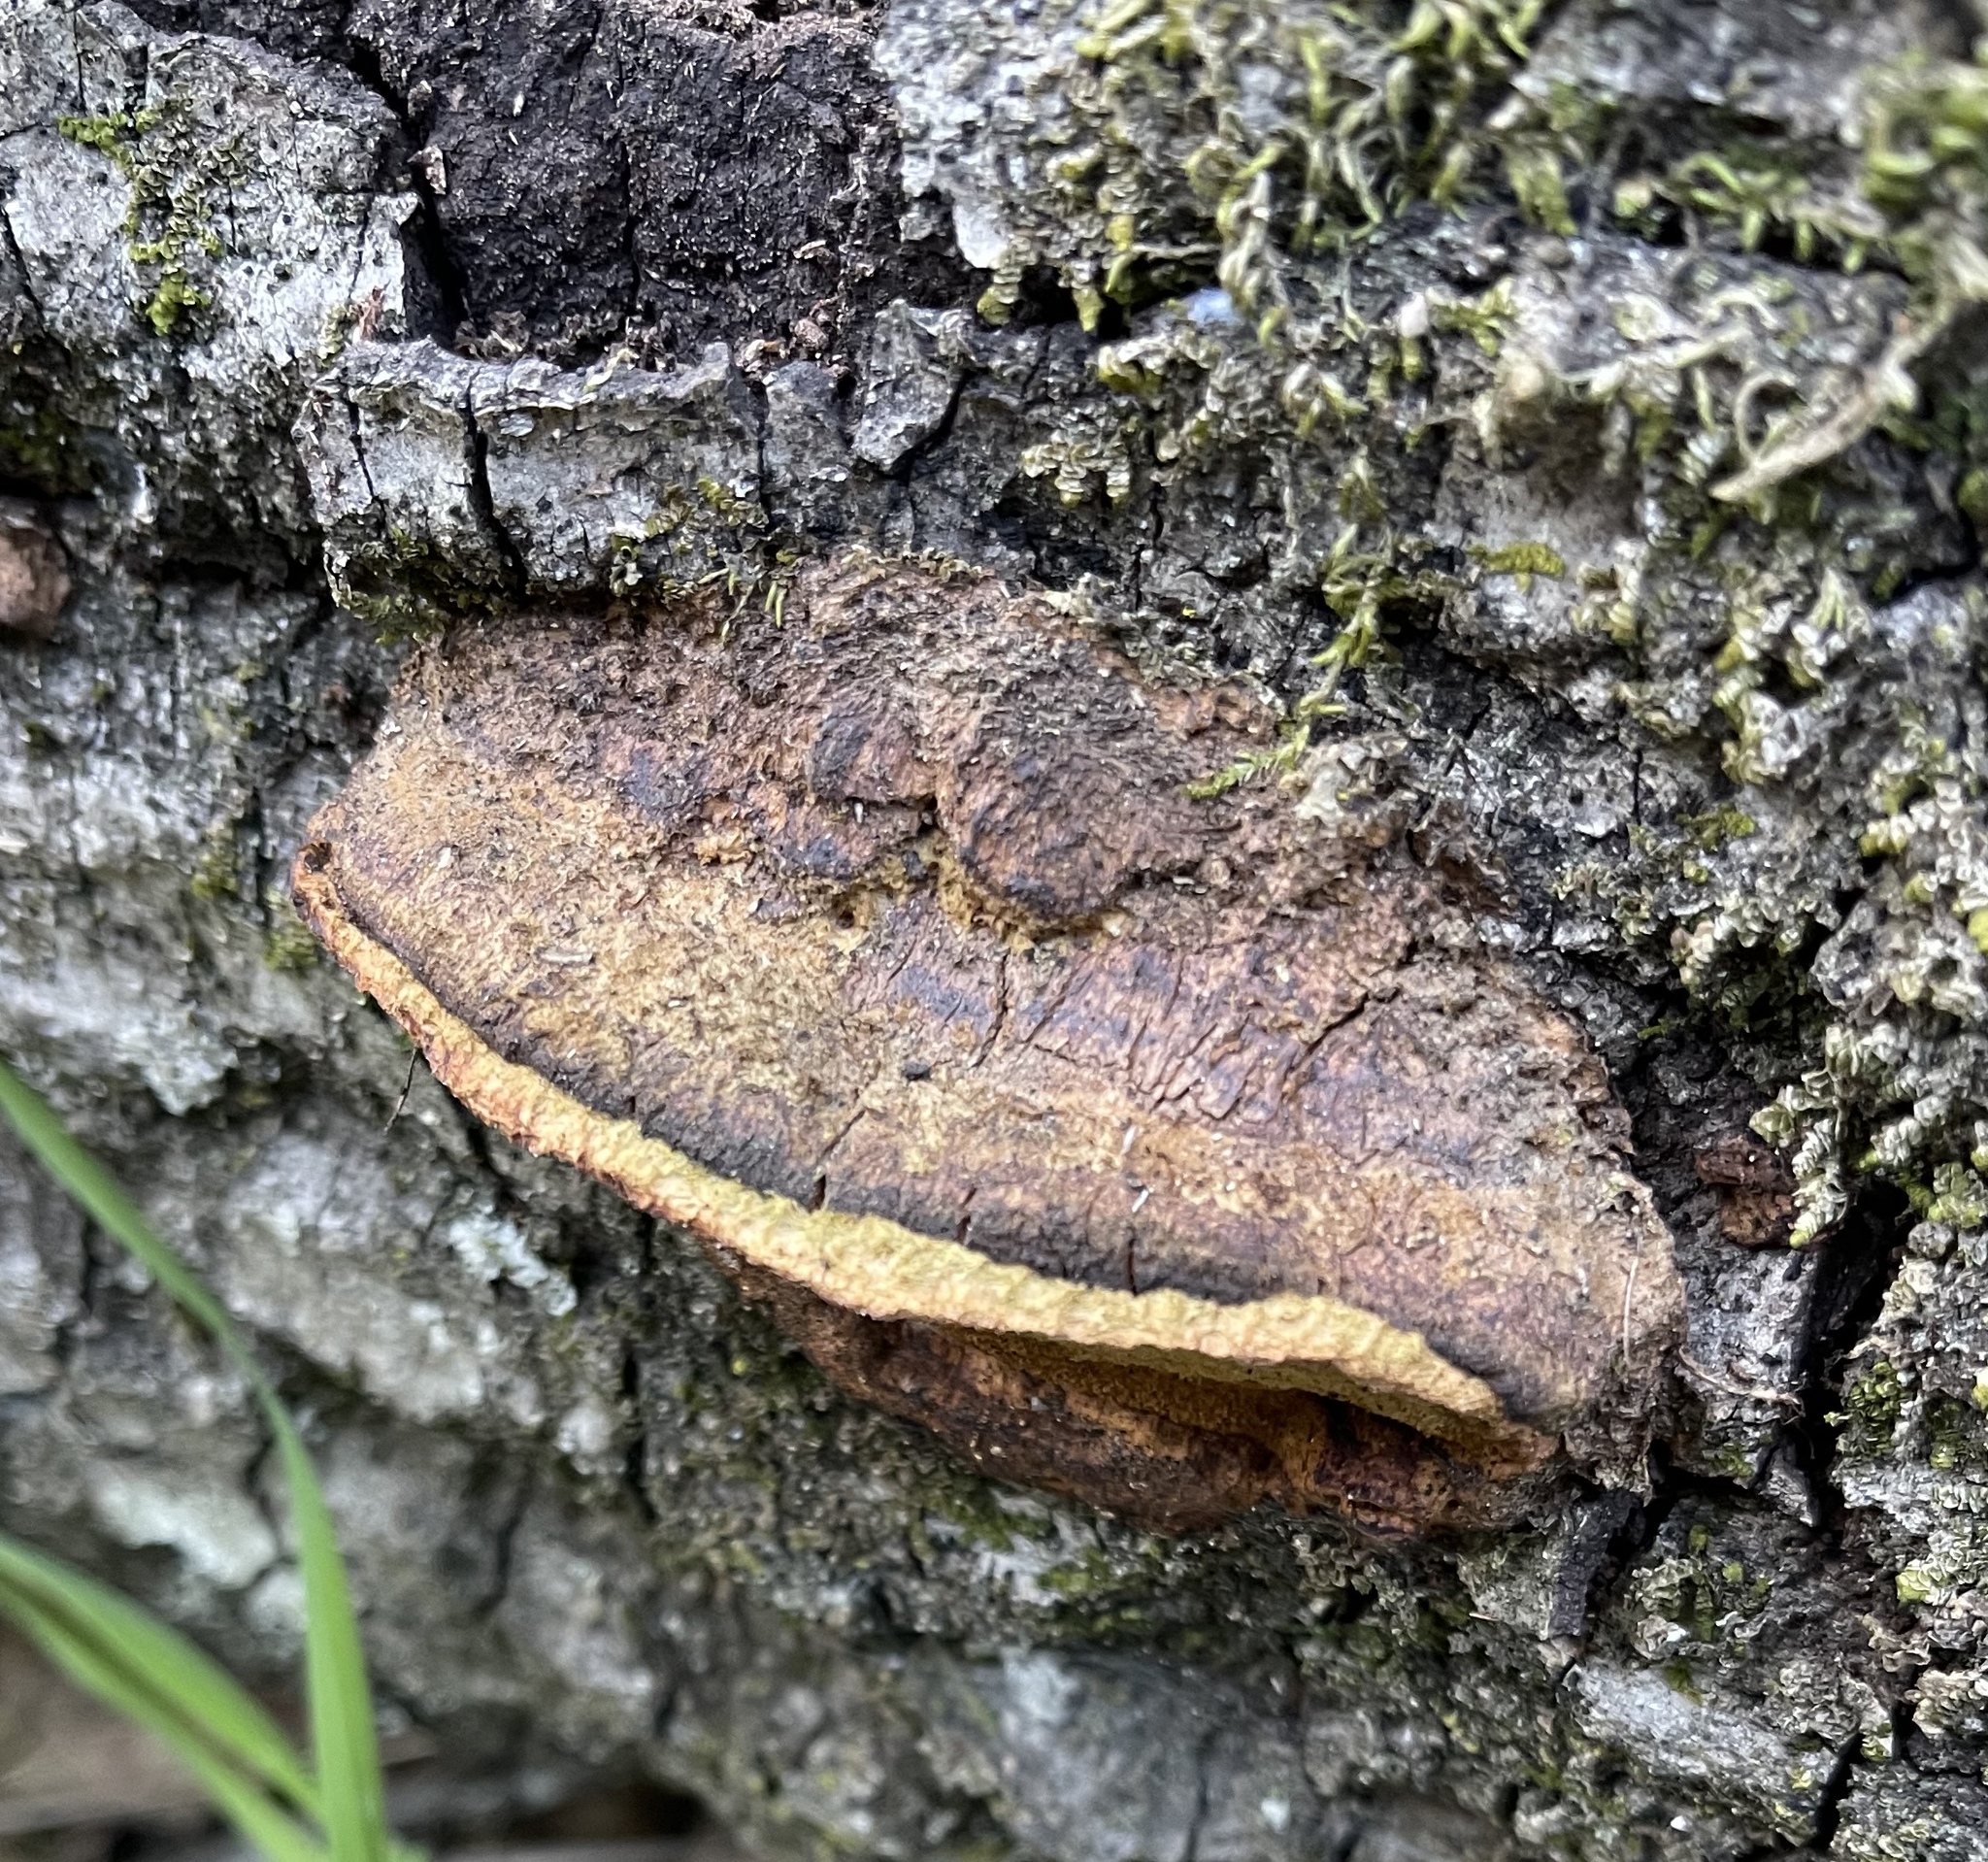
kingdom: Fungi
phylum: Basidiomycota
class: Agaricomycetes
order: Hymenochaetales
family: Hymenochaetaceae
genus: Phellinus
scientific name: Phellinus gilvus
